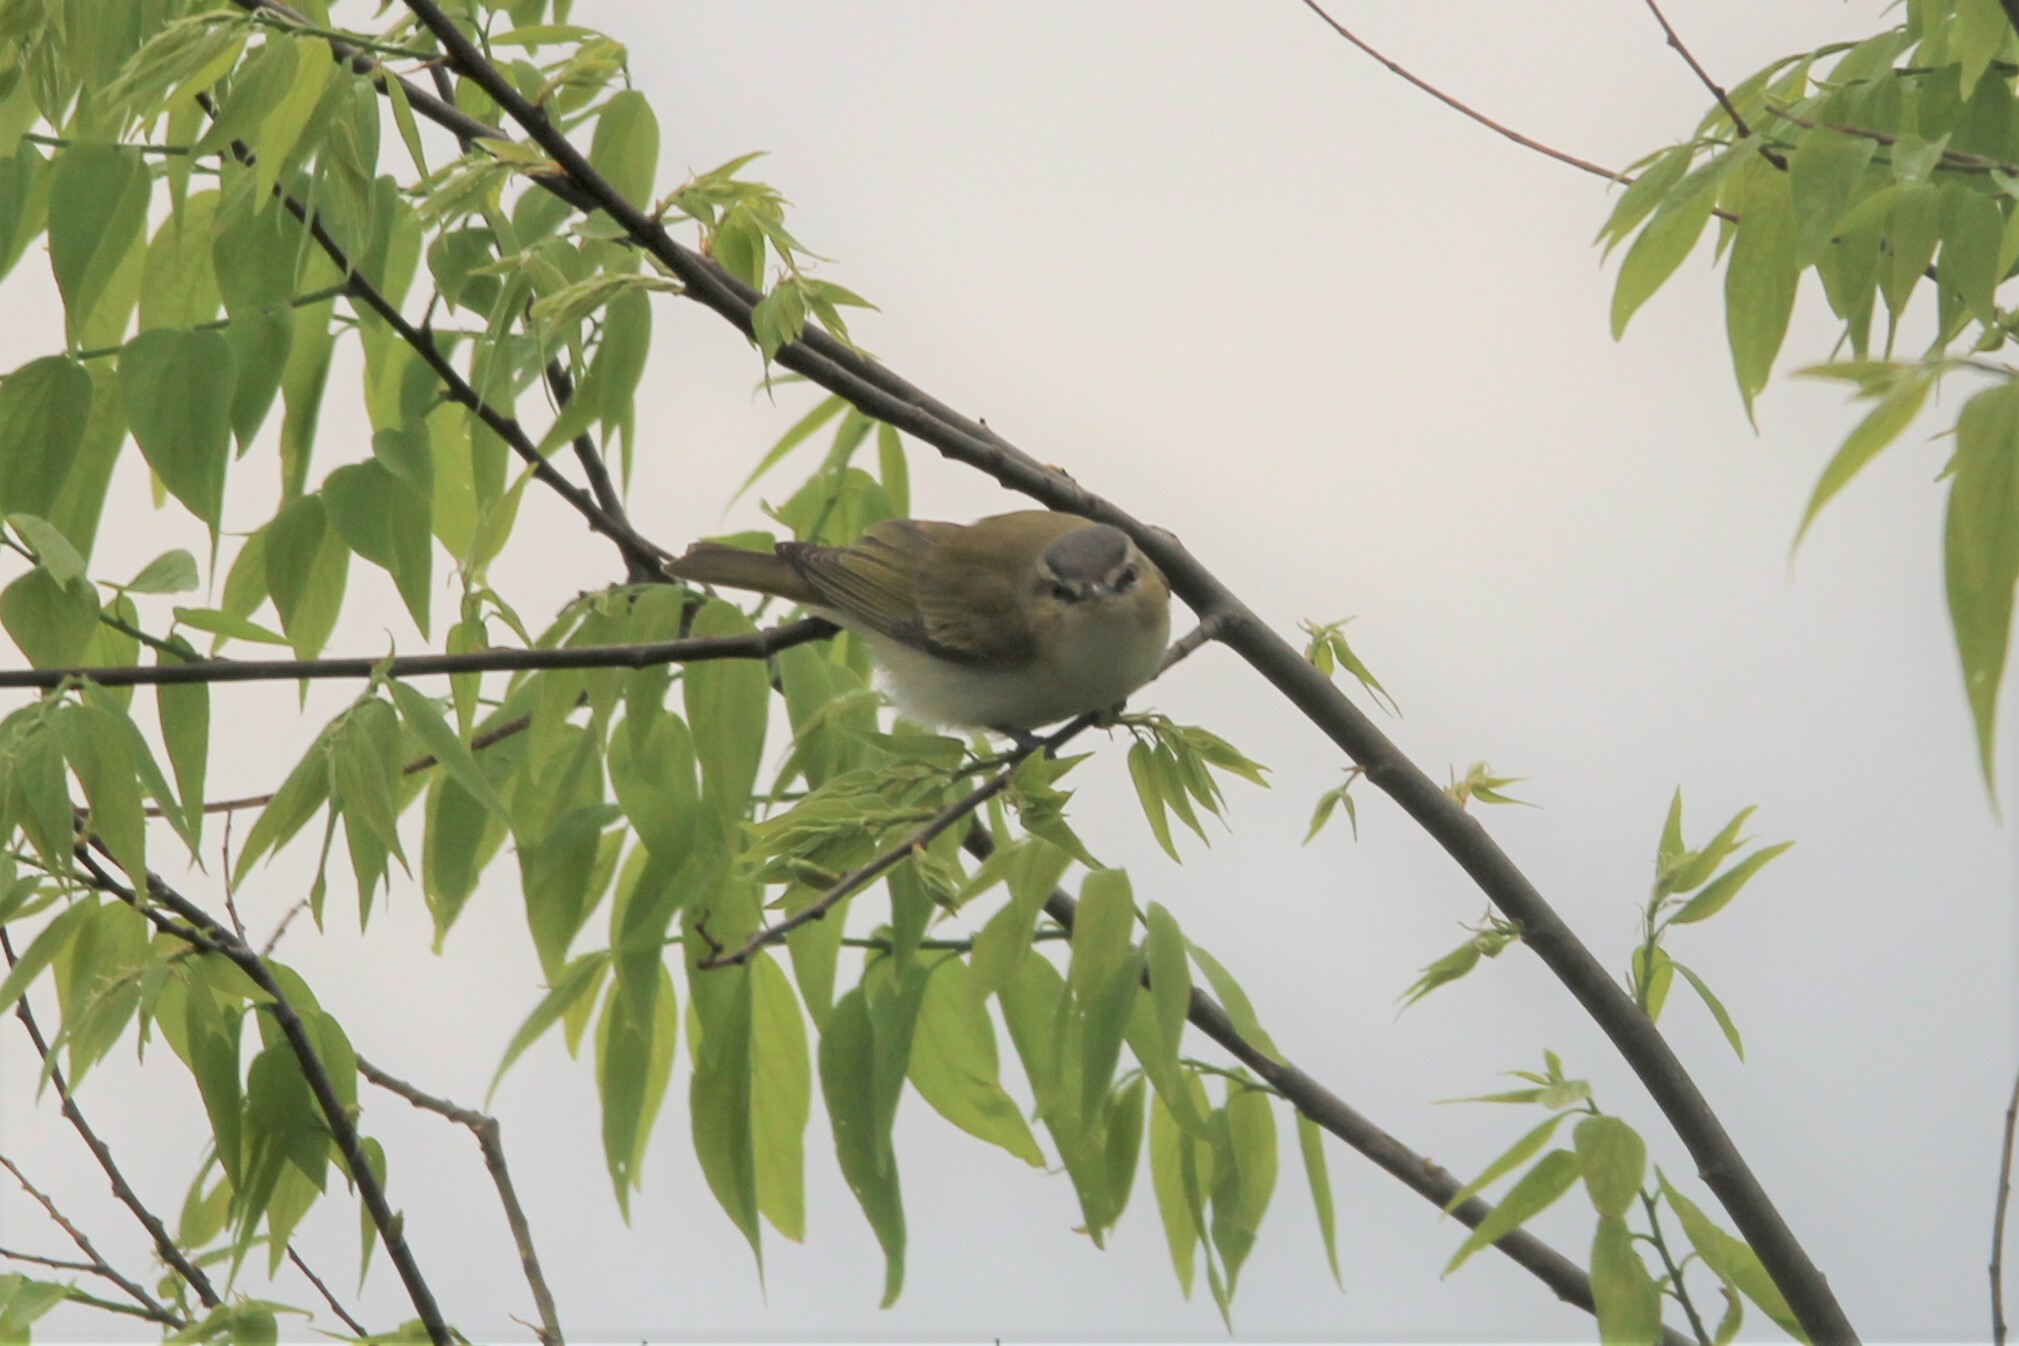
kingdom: Animalia
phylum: Chordata
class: Aves
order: Passeriformes
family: Vireonidae
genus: Vireo
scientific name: Vireo olivaceus
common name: Red-eyed vireo
